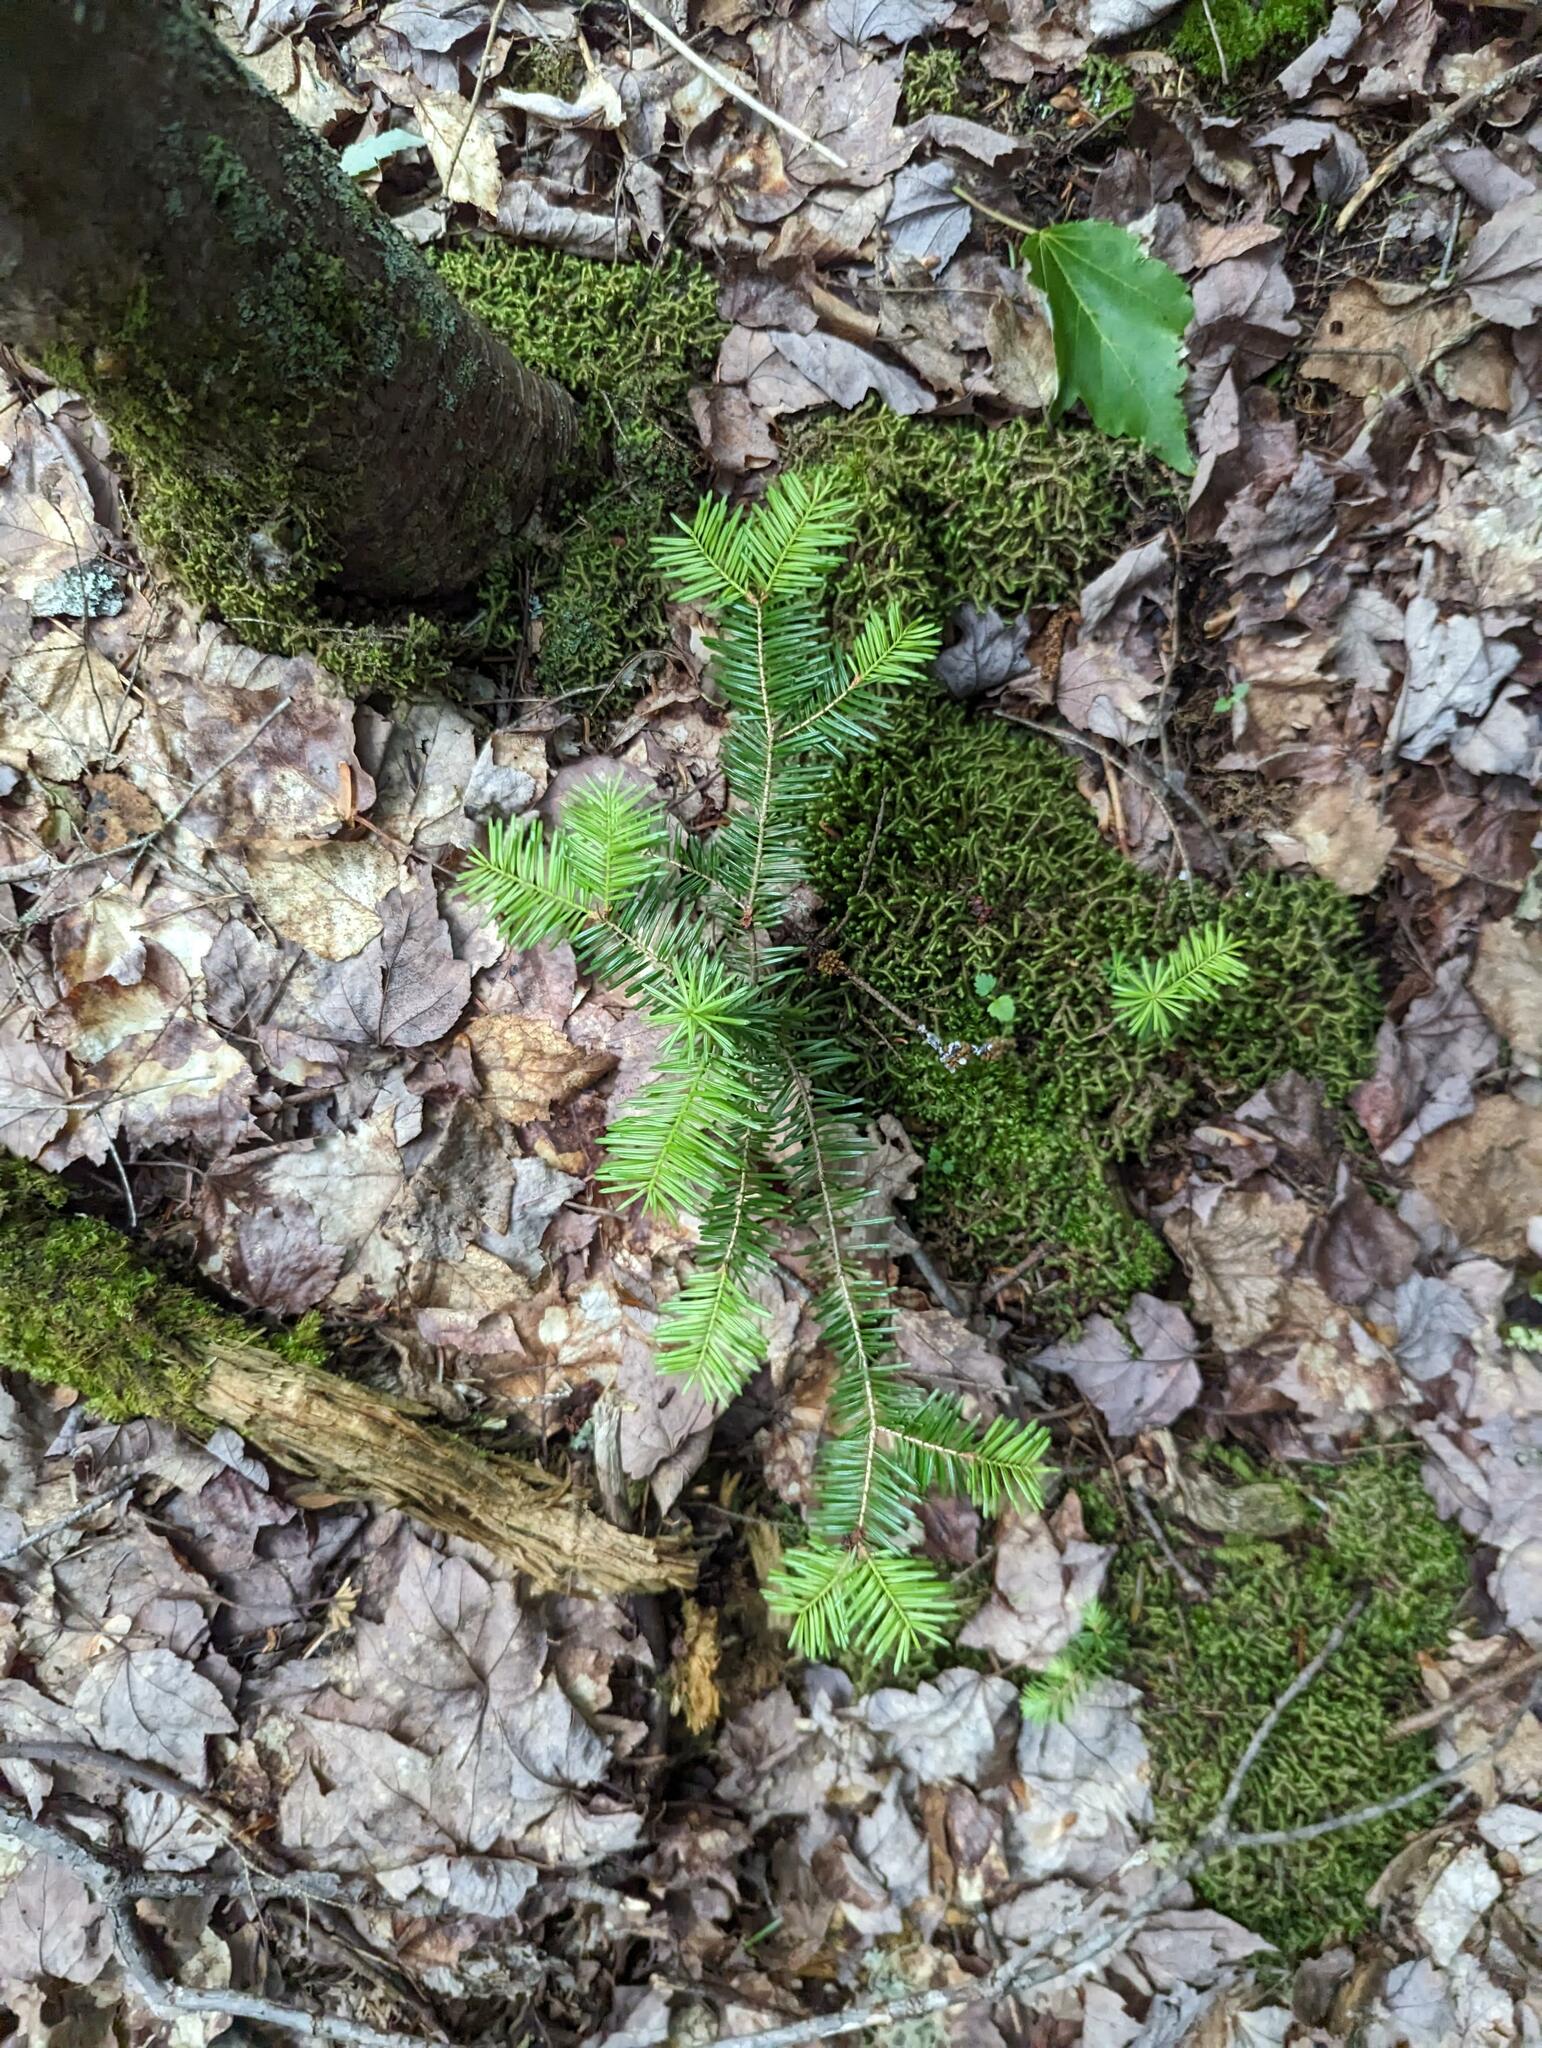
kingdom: Plantae
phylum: Tracheophyta
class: Pinopsida
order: Pinales
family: Pinaceae
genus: Abies
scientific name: Abies balsamea
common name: Balsam fir
